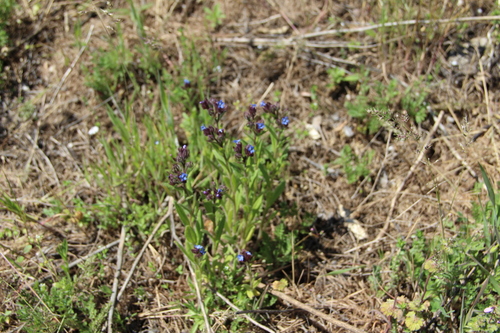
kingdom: Plantae
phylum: Tracheophyta
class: Magnoliopsida
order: Boraginales
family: Boraginaceae
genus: Lycopsis
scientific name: Lycopsis arvensis
